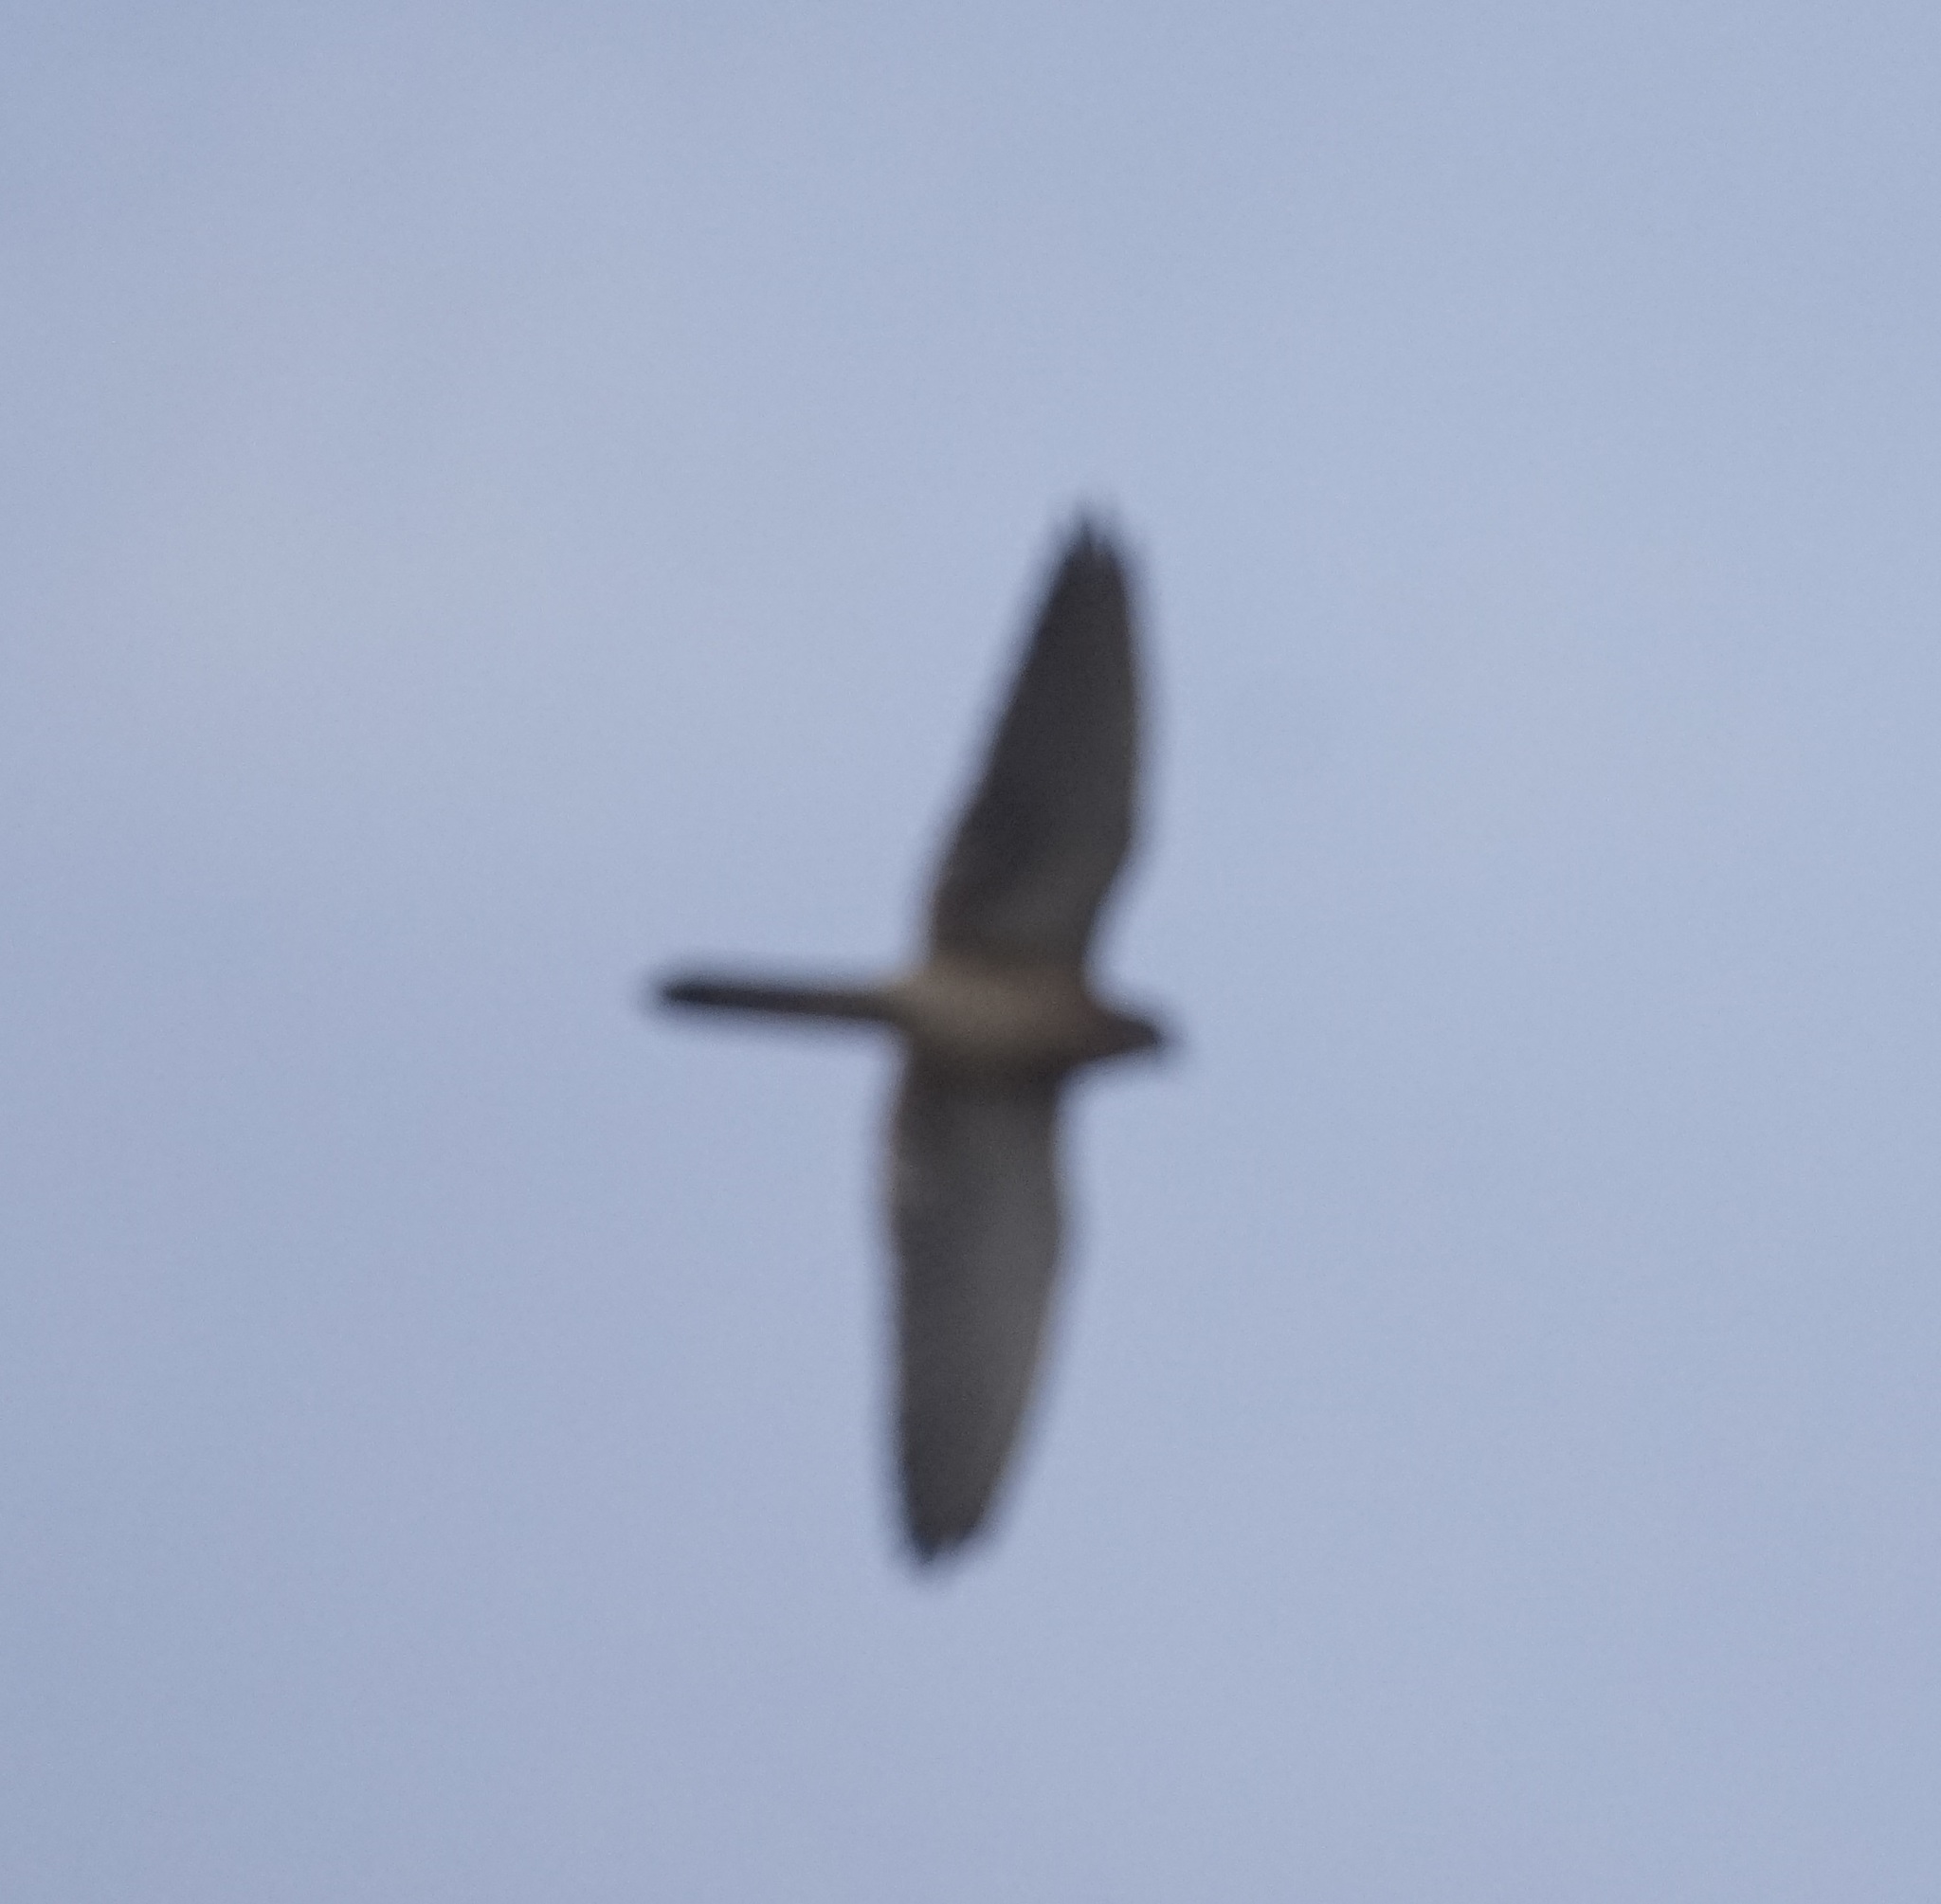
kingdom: Animalia
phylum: Chordata
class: Aves
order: Falconiformes
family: Falconidae
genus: Falco
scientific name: Falco cenchroides
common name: Nankeen kestrel
